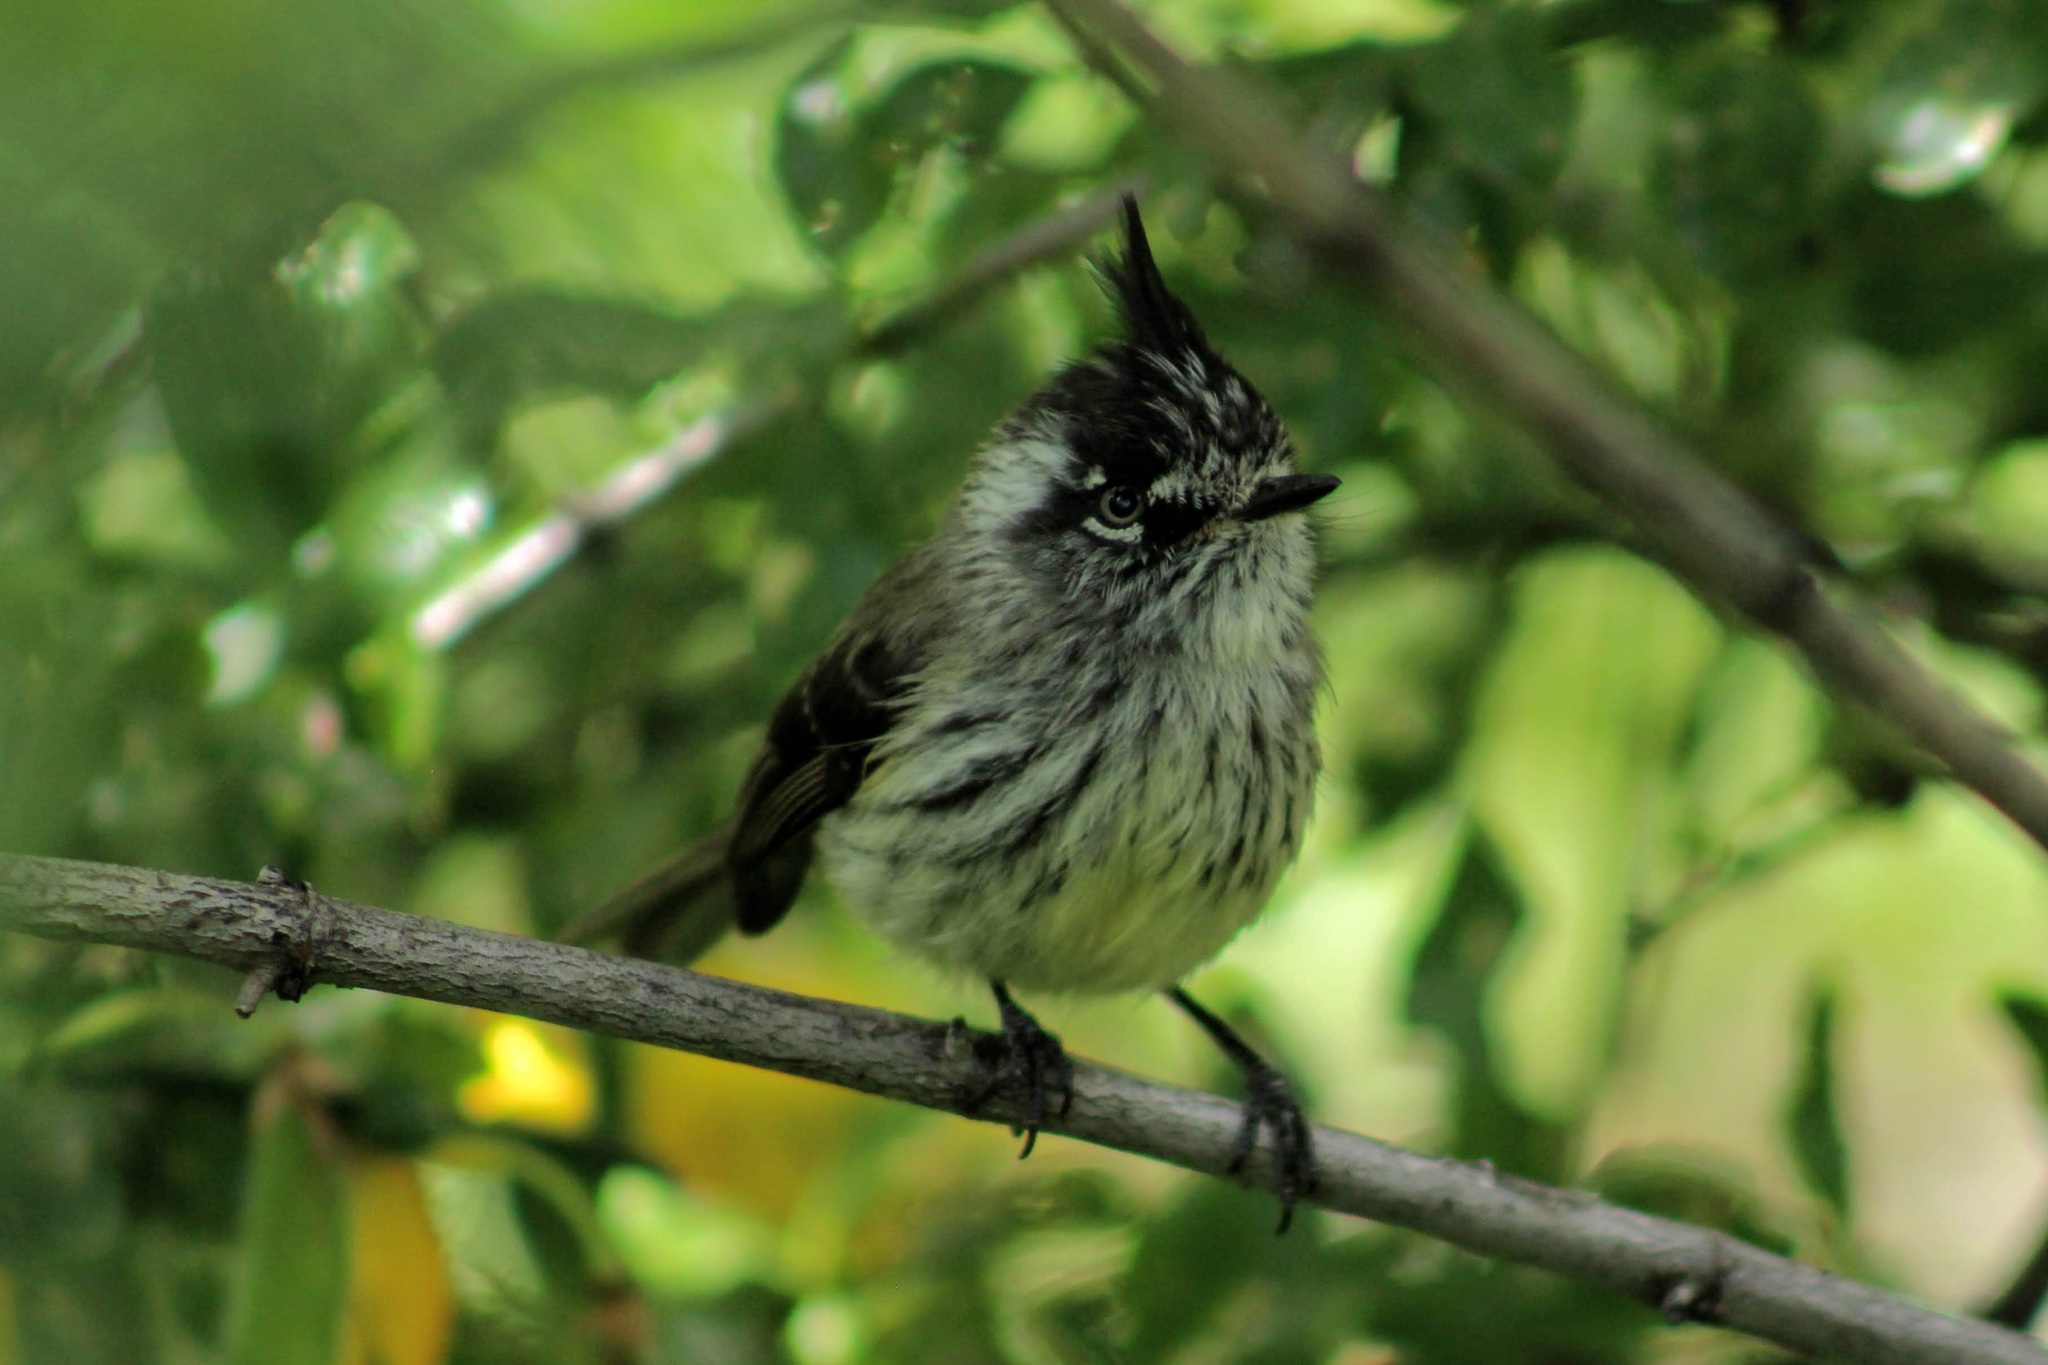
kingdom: Animalia
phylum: Chordata
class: Aves
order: Passeriformes
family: Tyrannidae
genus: Anairetes
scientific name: Anairetes parulus
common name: Tufted tit-tyrant
